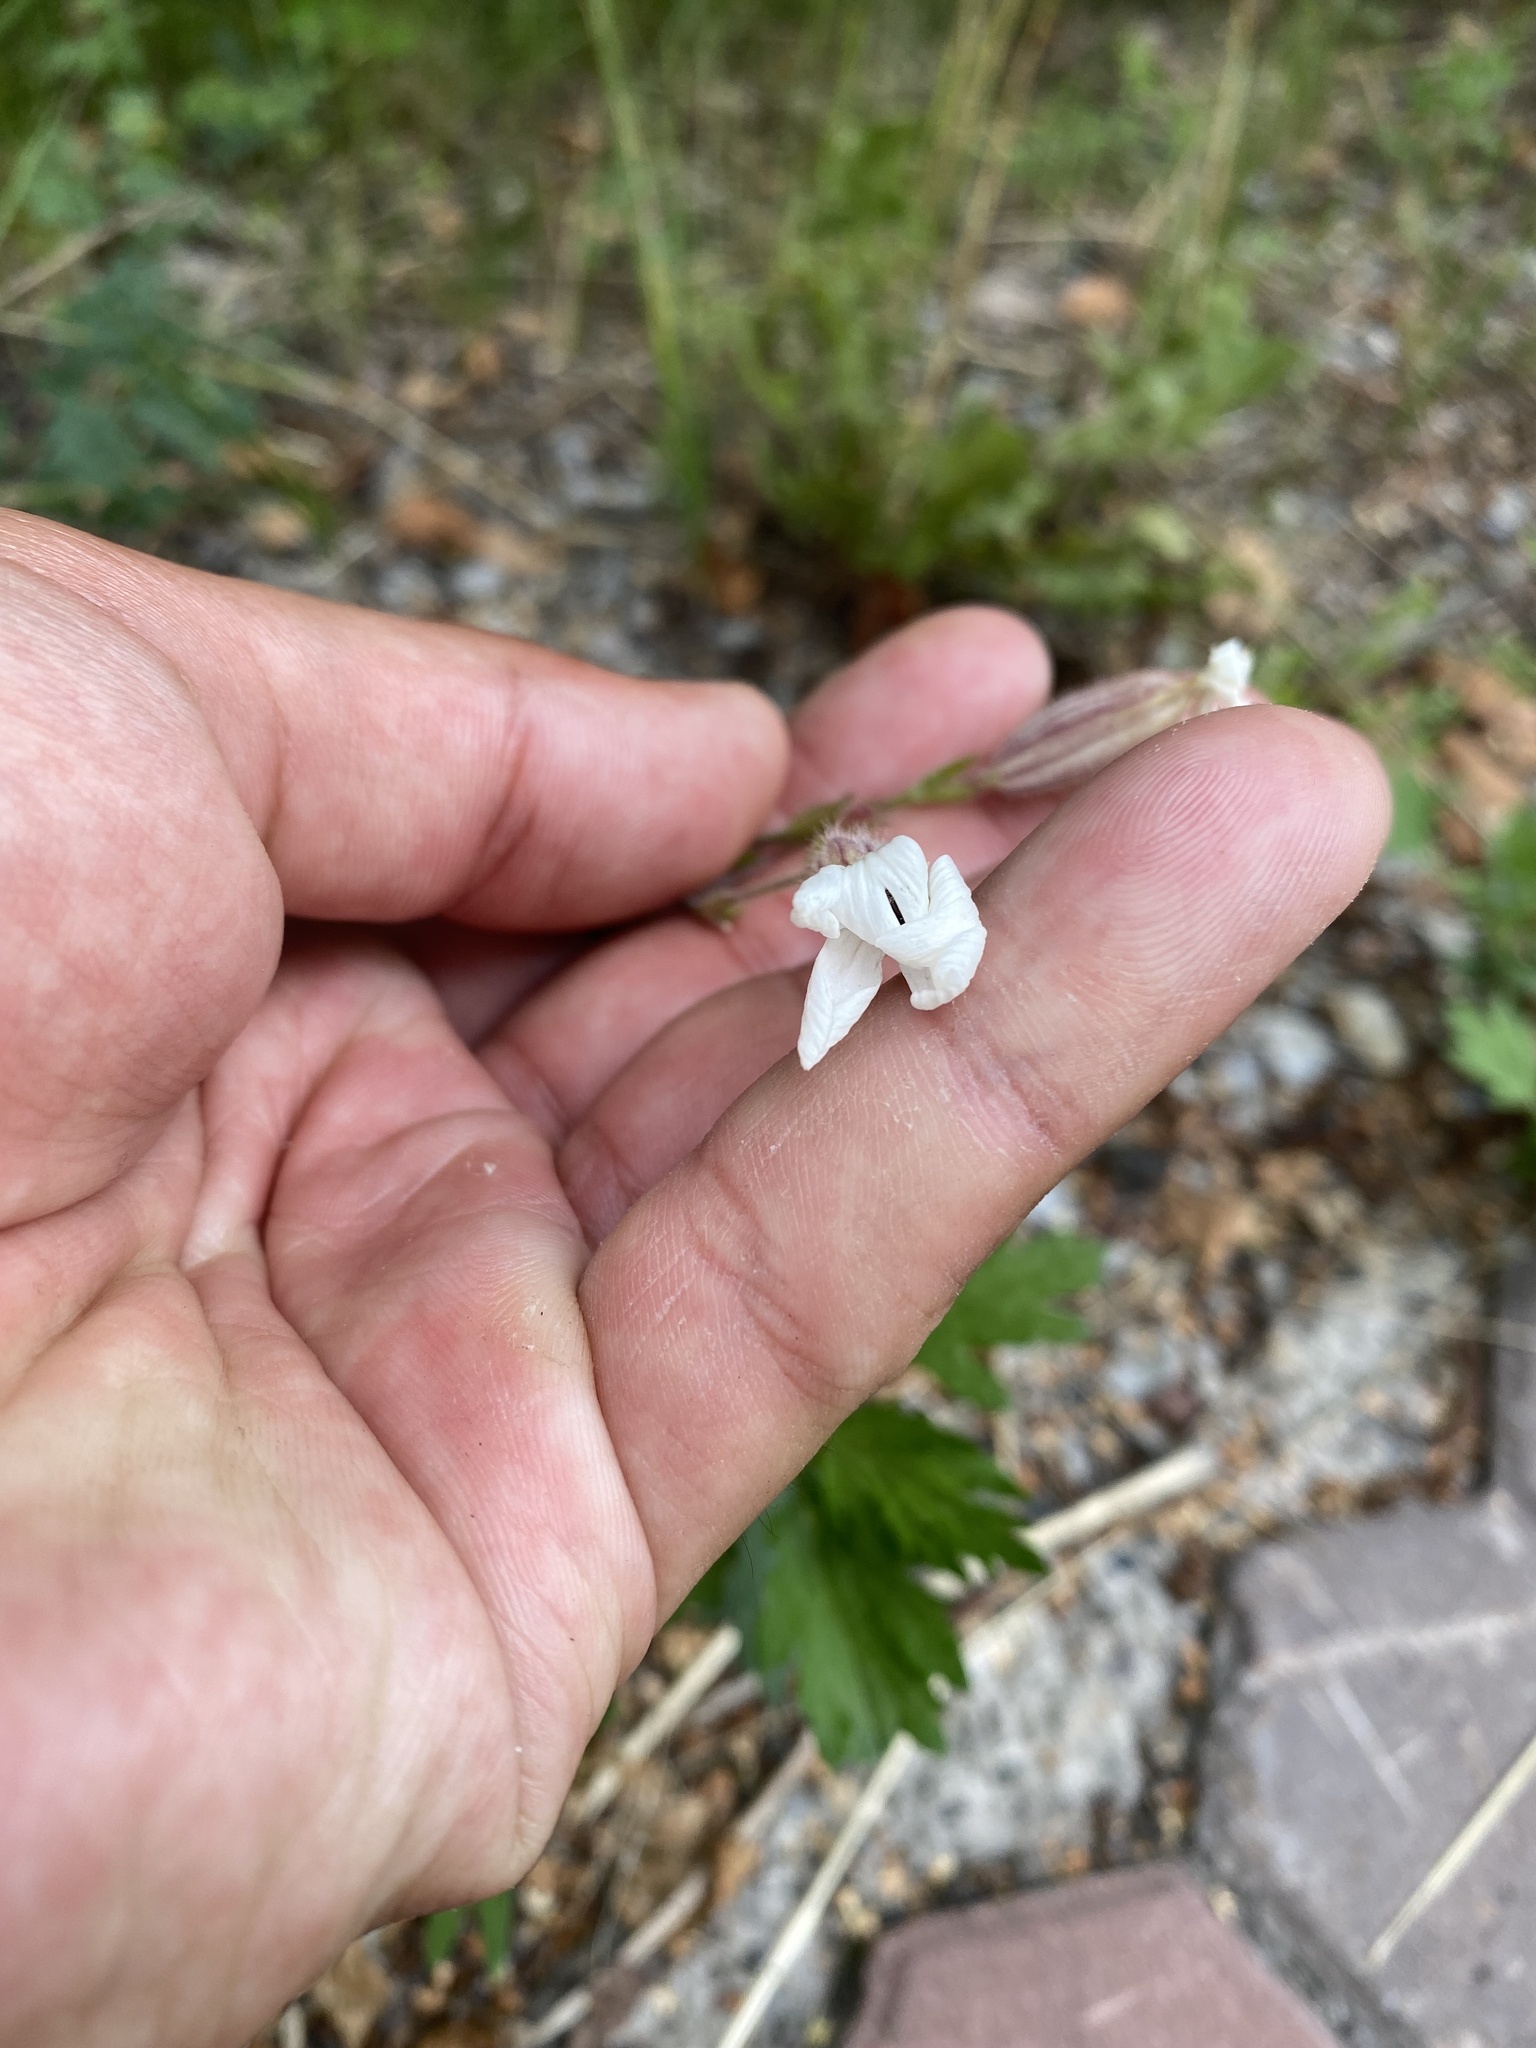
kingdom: Plantae
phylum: Tracheophyta
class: Magnoliopsida
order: Caryophyllales
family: Caryophyllaceae
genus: Silene
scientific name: Silene latifolia
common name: White campion
